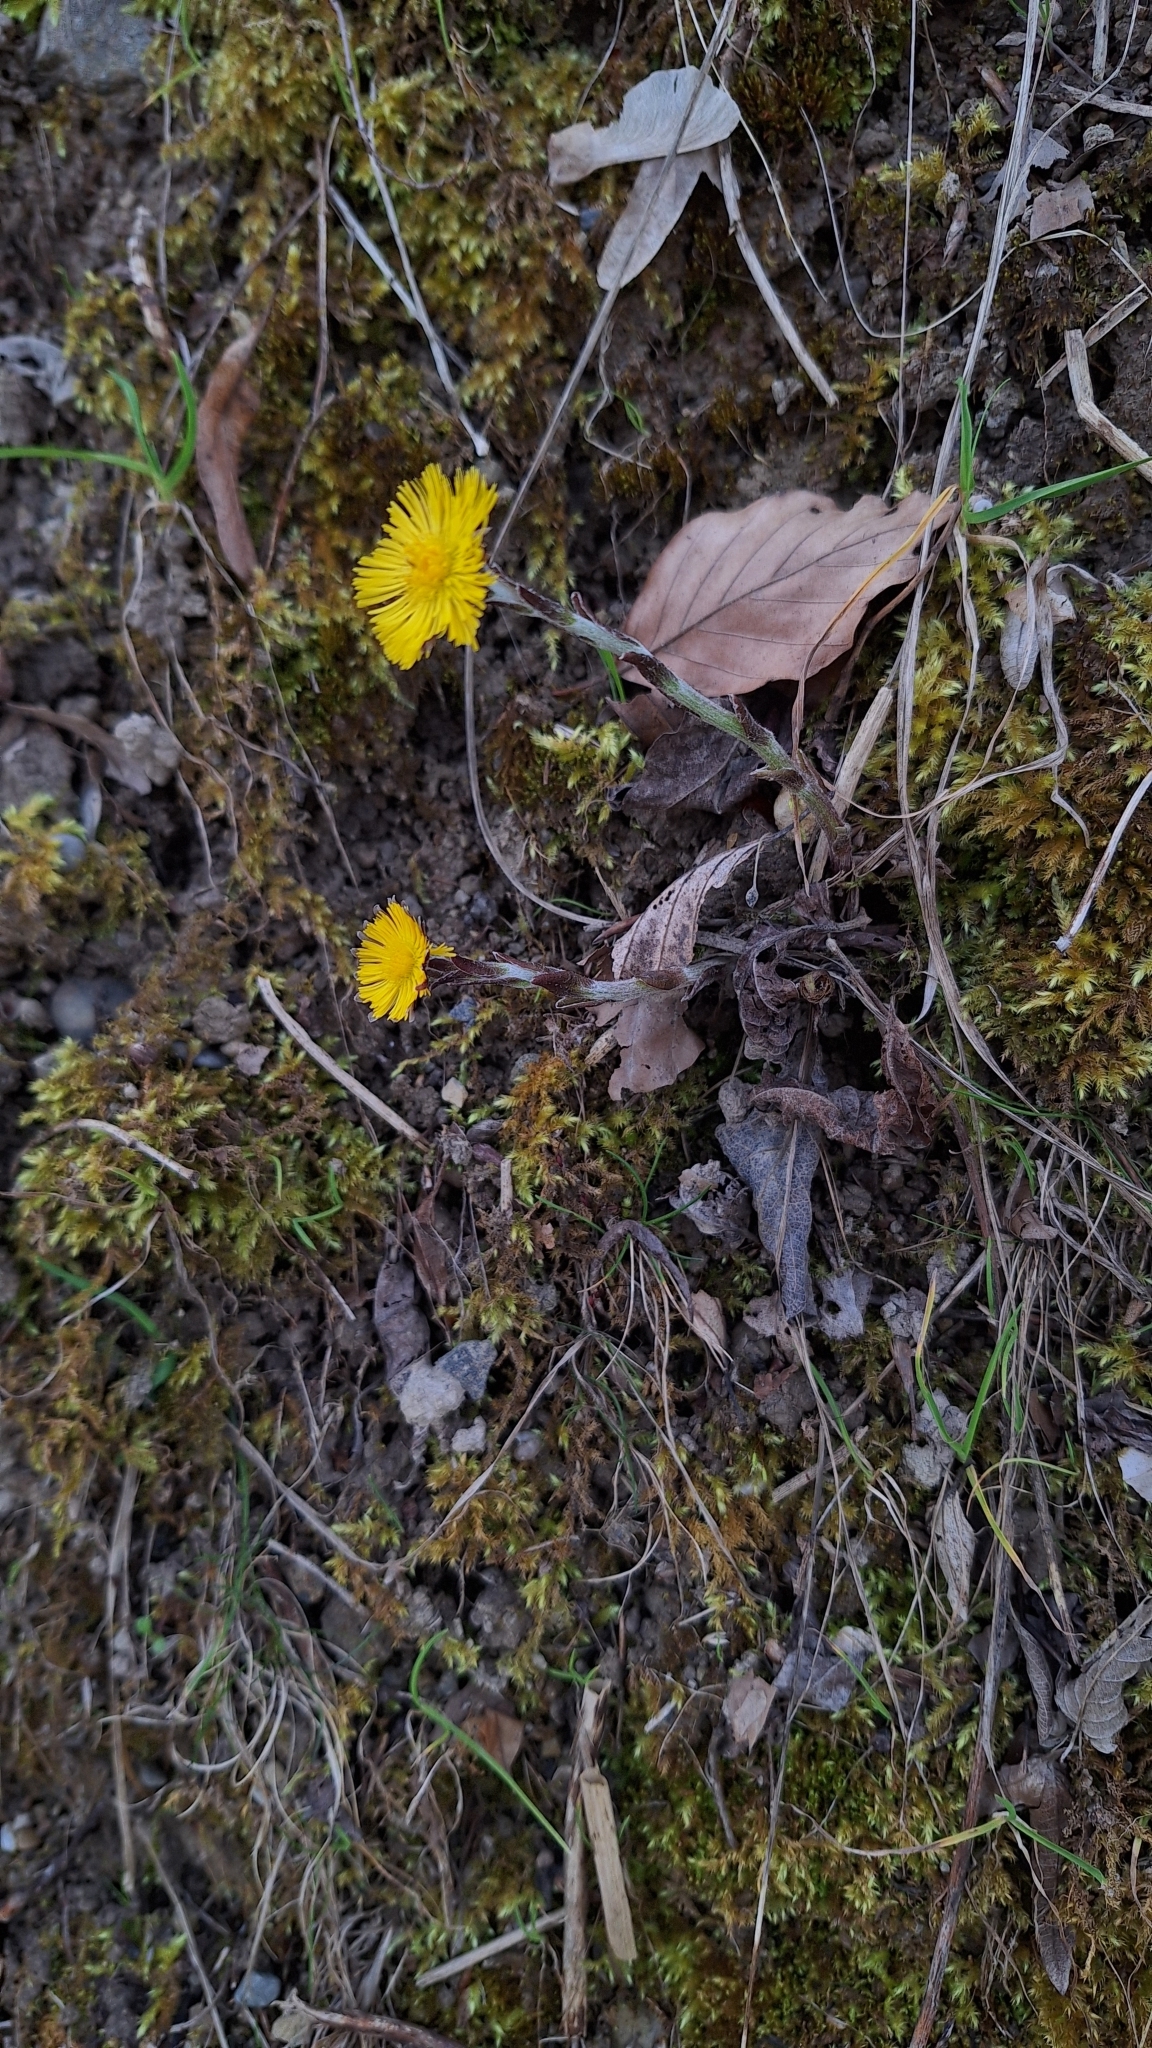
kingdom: Plantae
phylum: Tracheophyta
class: Magnoliopsida
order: Asterales
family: Asteraceae
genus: Tussilago
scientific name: Tussilago farfara
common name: Coltsfoot
